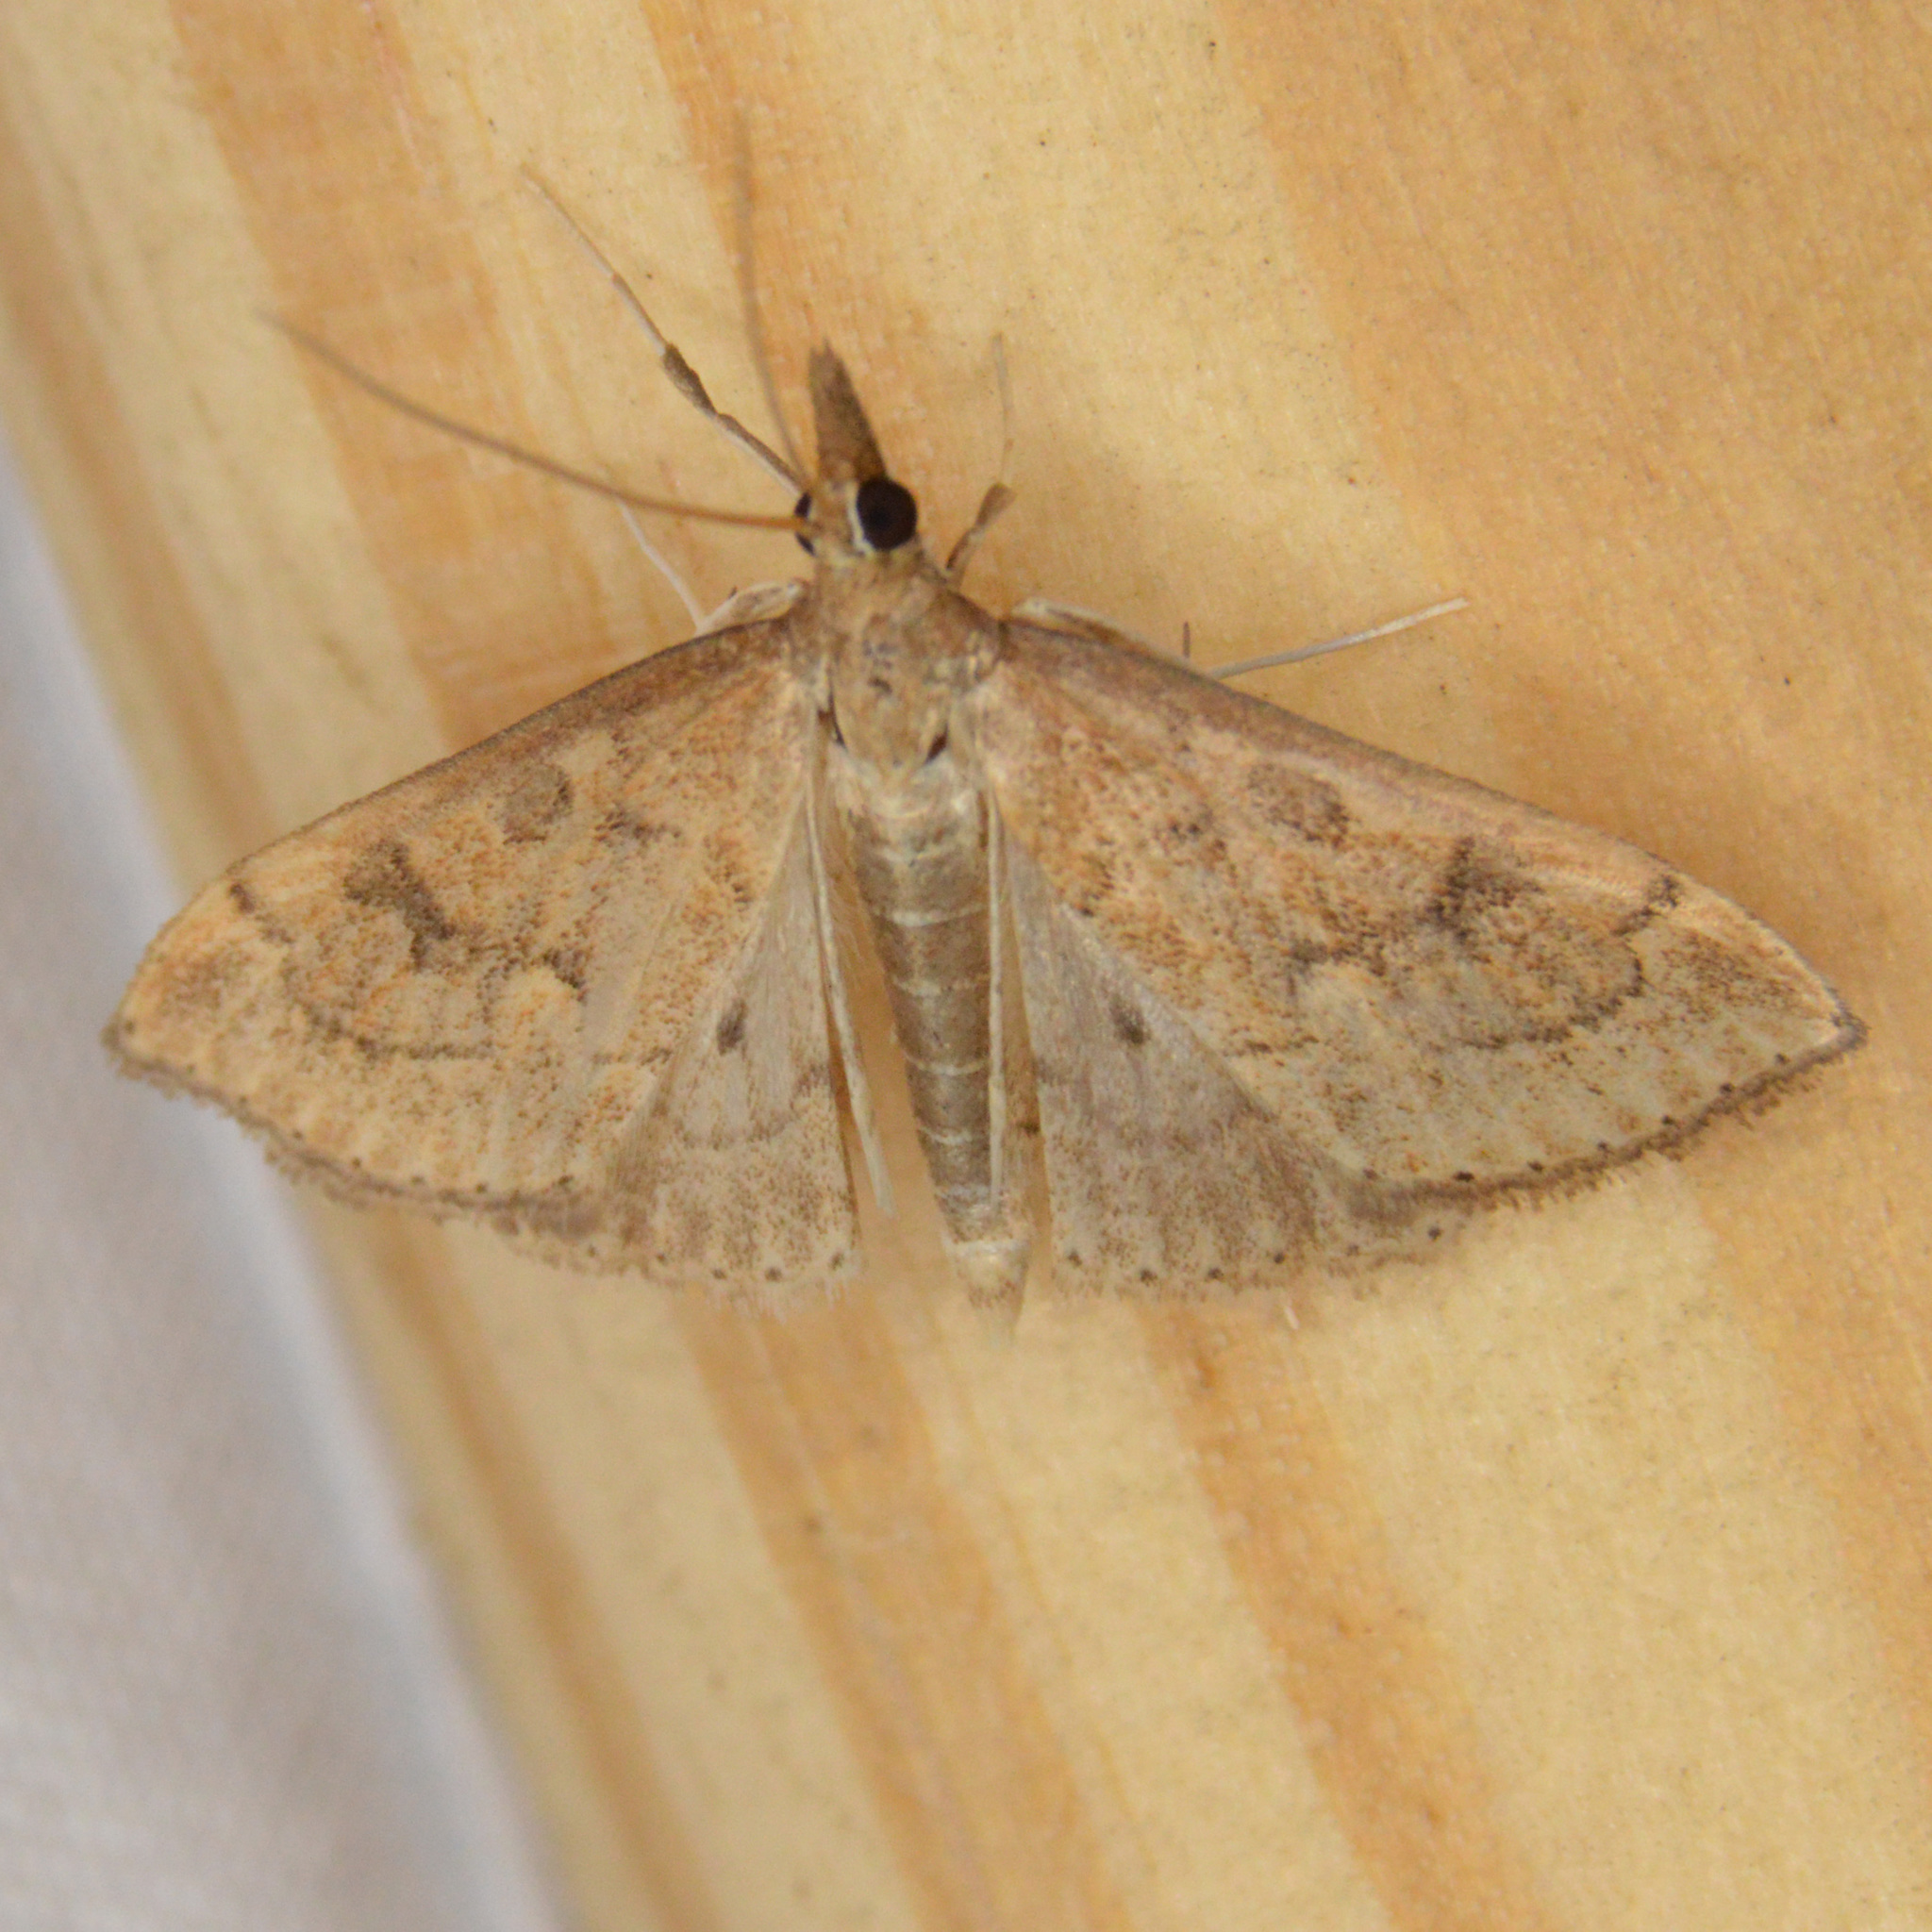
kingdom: Animalia
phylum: Arthropoda
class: Insecta
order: Lepidoptera
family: Crambidae
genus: Udea
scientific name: Udea rubigalis
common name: Celery leaftier moth
